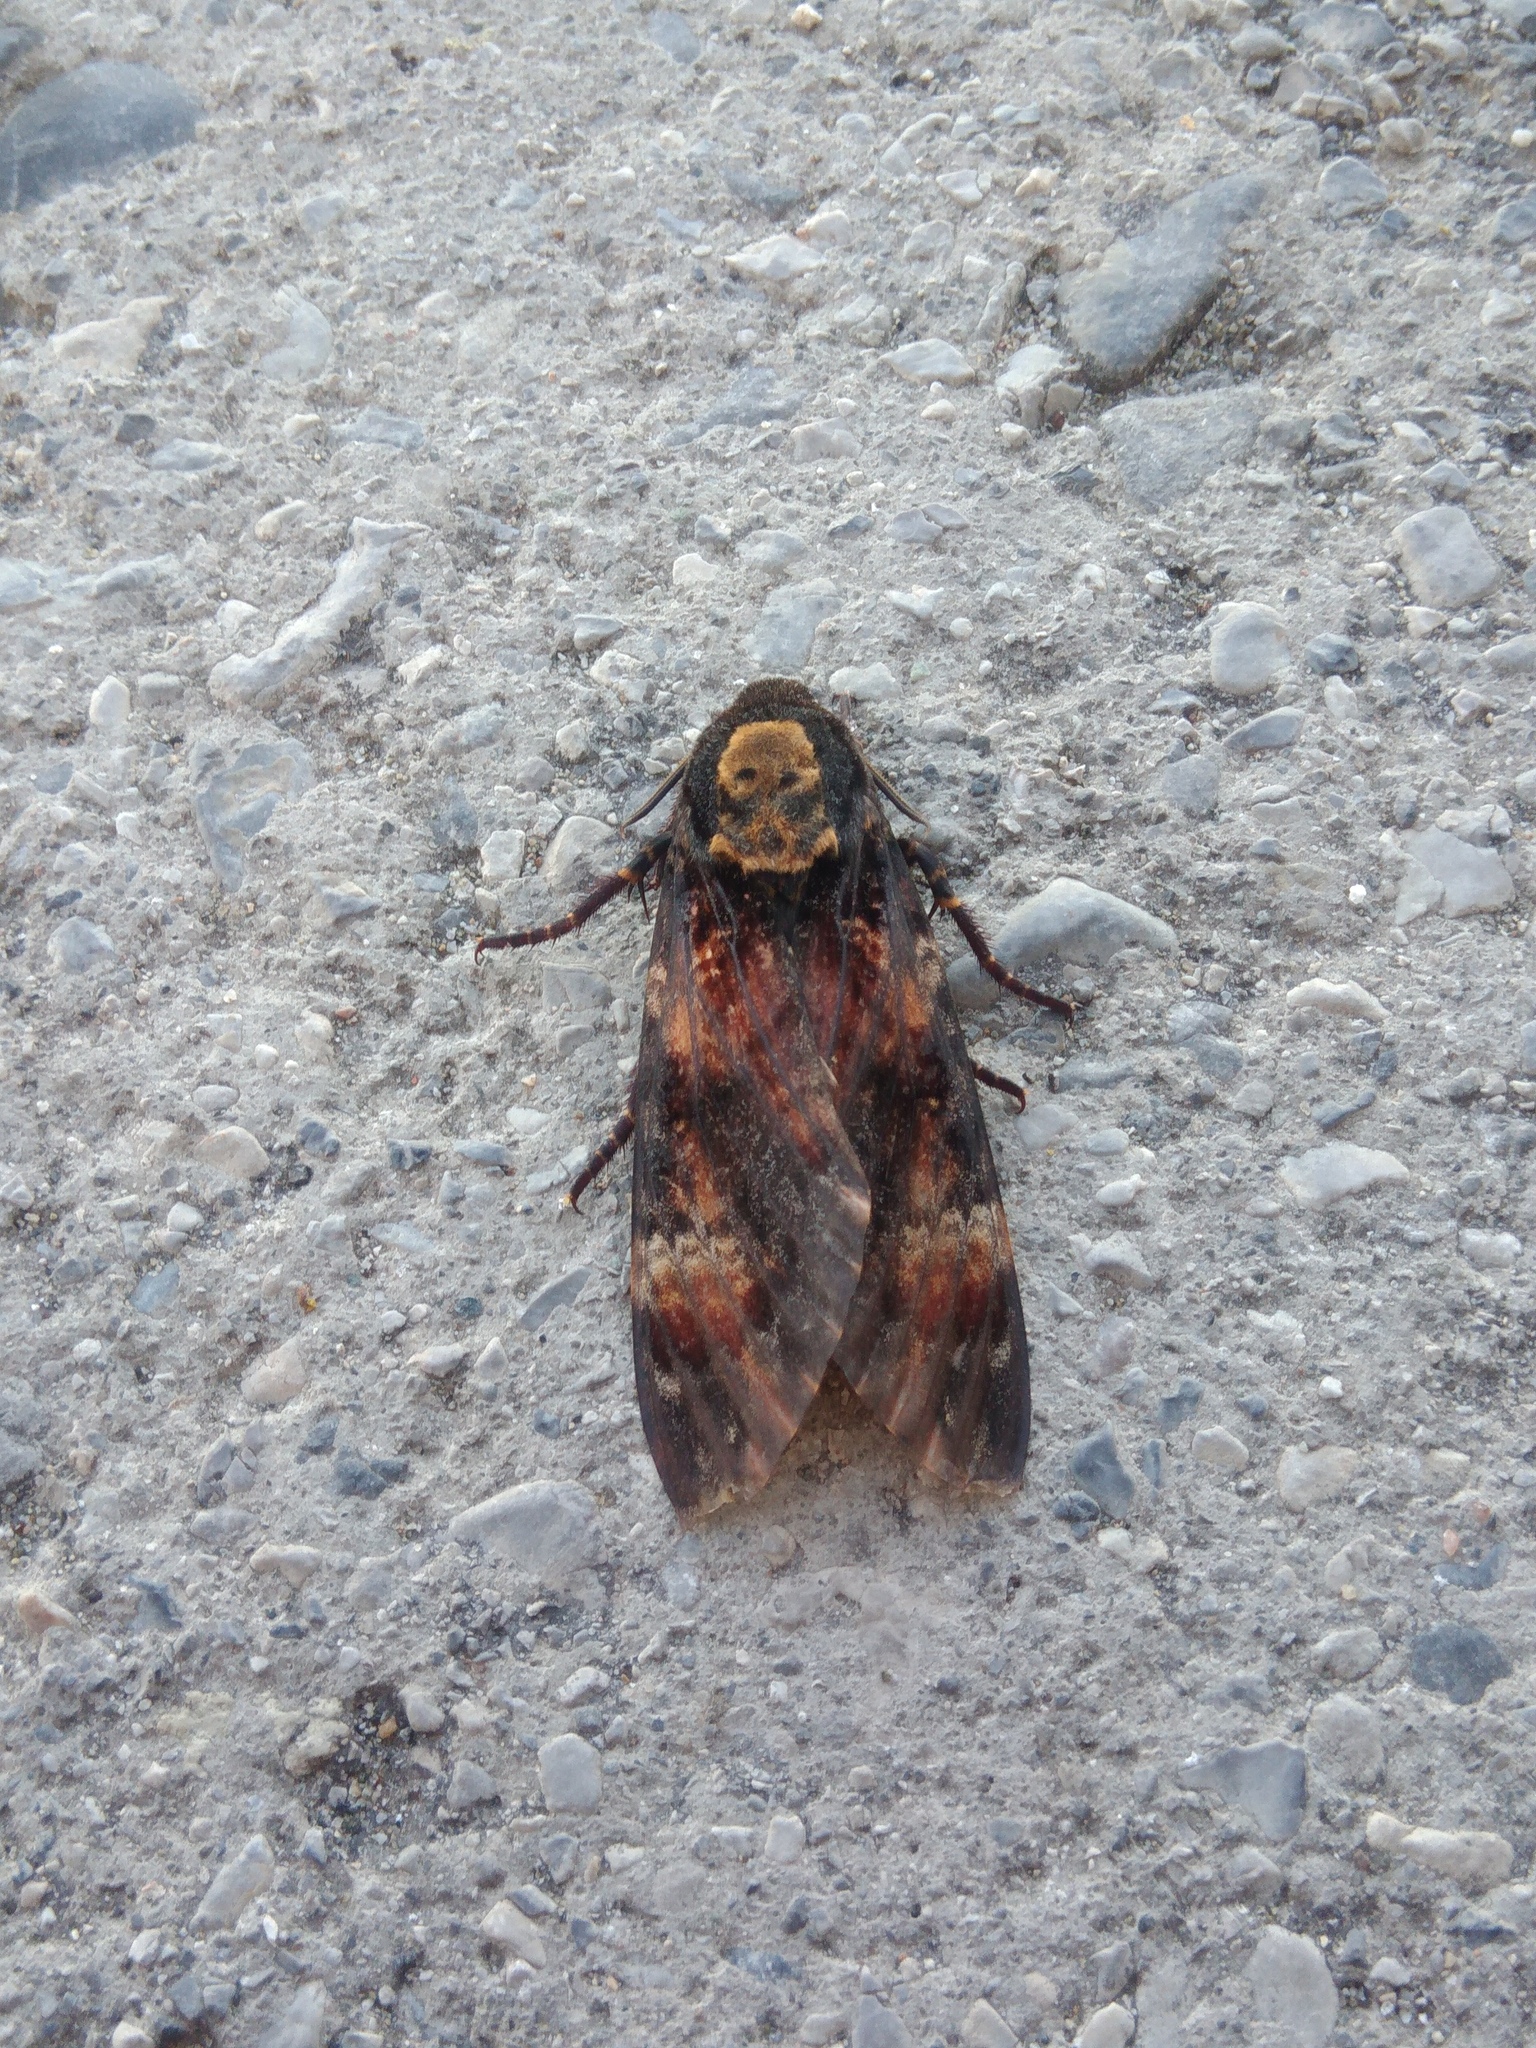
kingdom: Animalia
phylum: Arthropoda
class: Insecta
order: Lepidoptera
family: Sphingidae
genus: Acherontia
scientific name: Acherontia atropos
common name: Death's-head hawk moth
